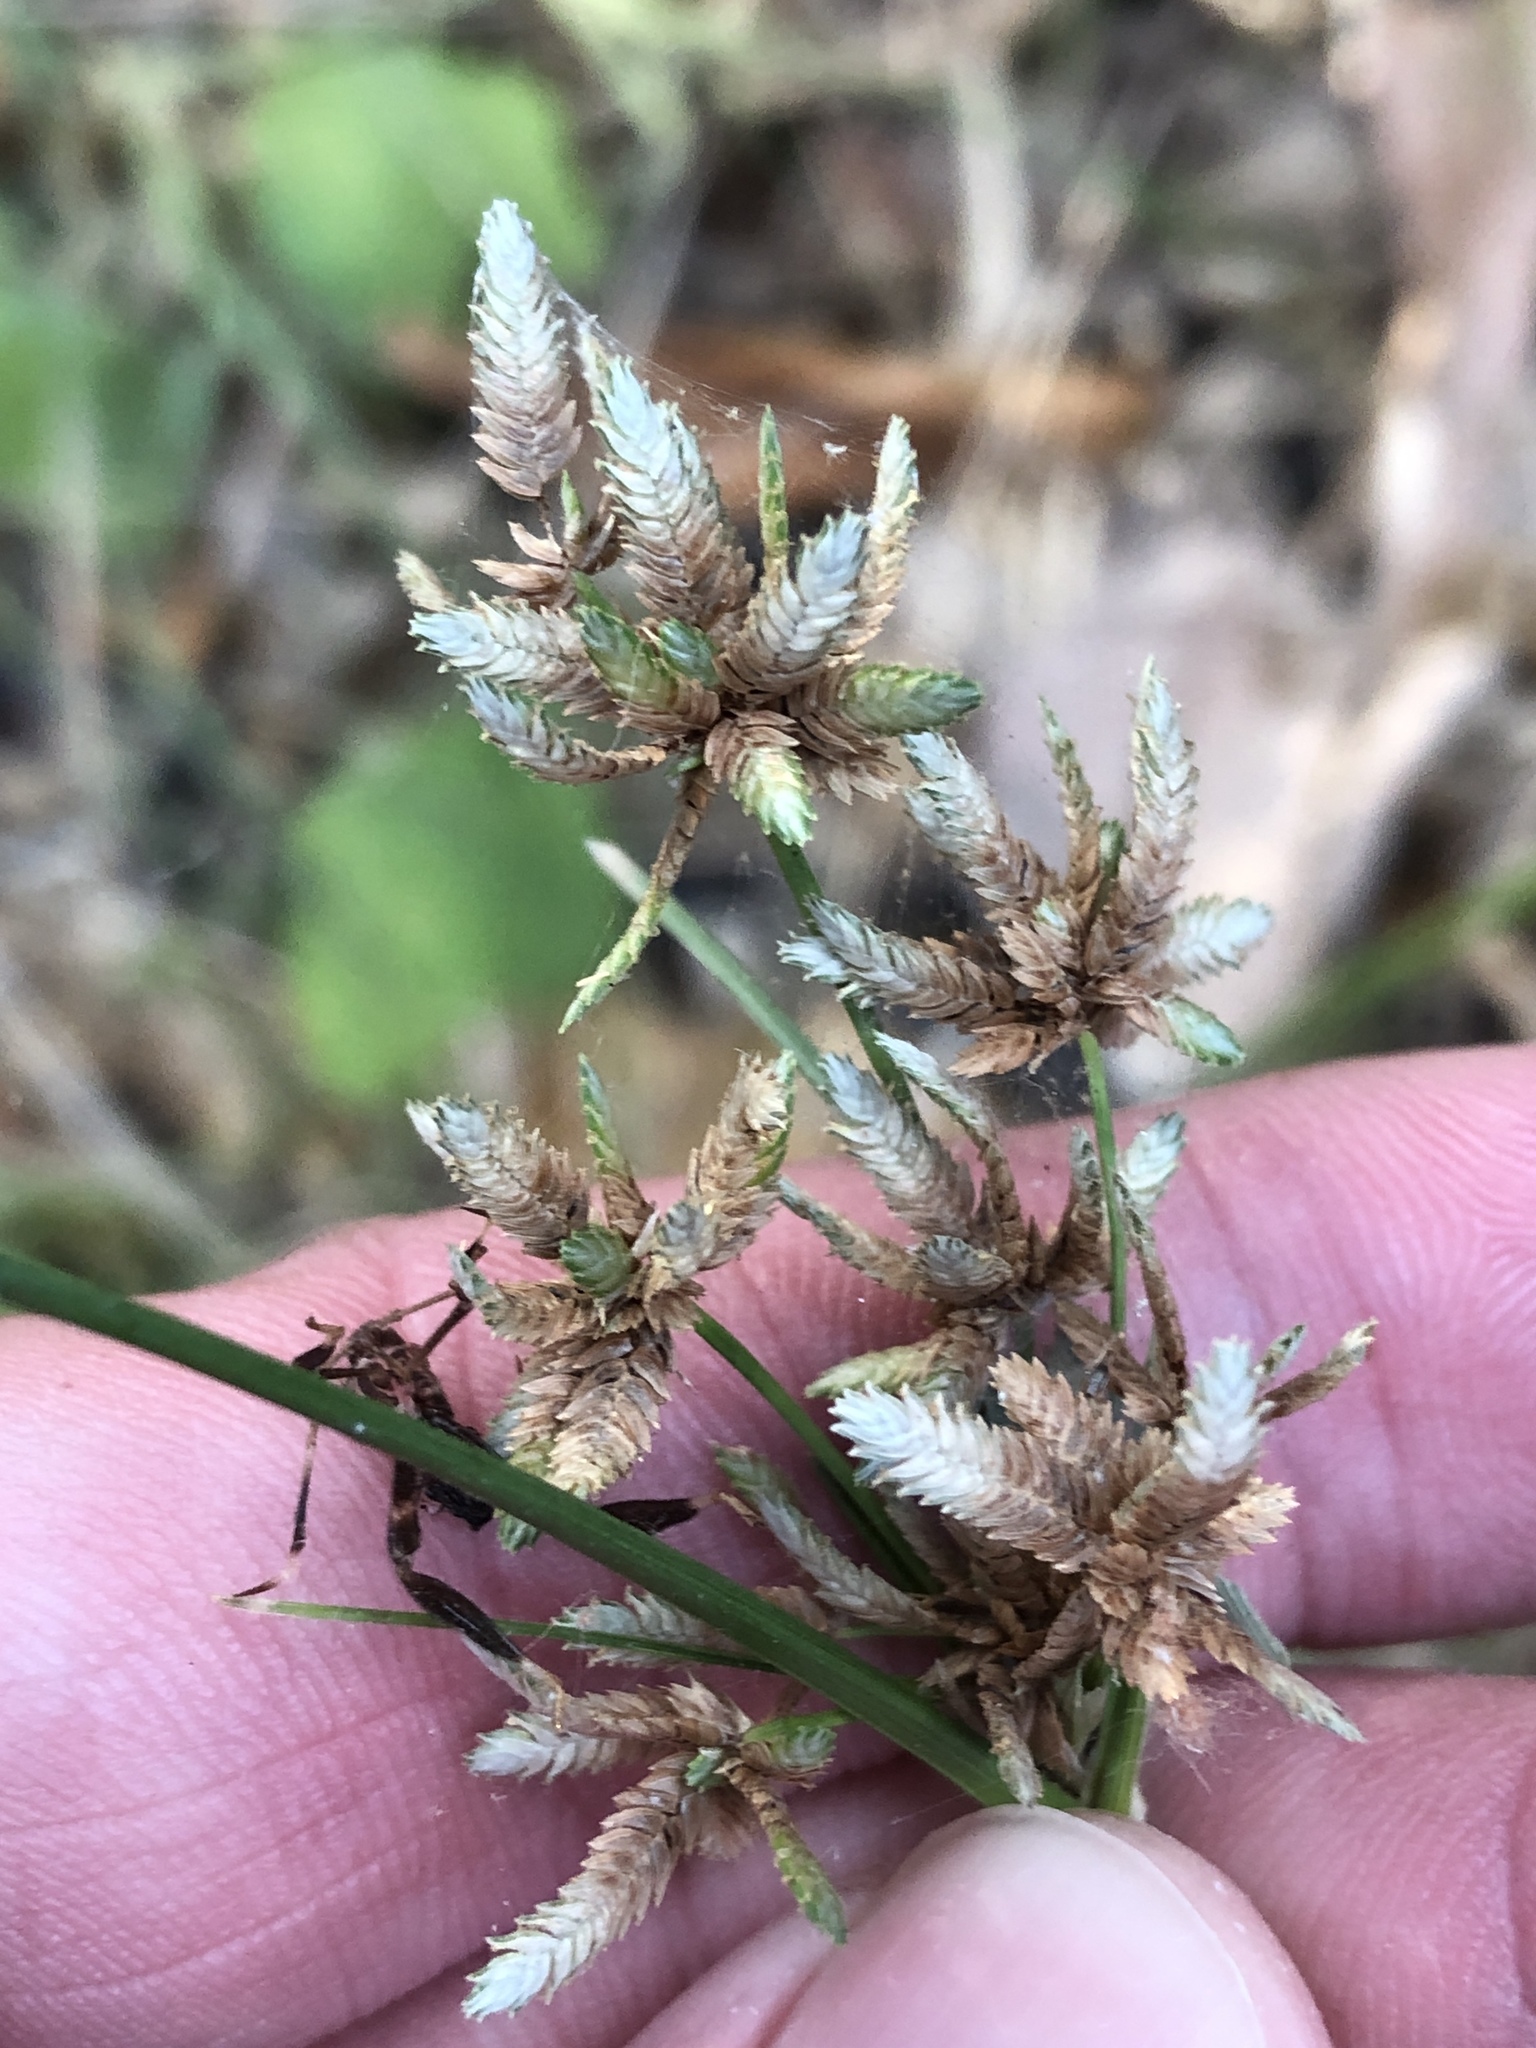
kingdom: Plantae
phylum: Tracheophyta
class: Liliopsida
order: Poales
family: Cyperaceae
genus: Cyperus
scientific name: Cyperus acuminatus
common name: Short-pointed cyperus
